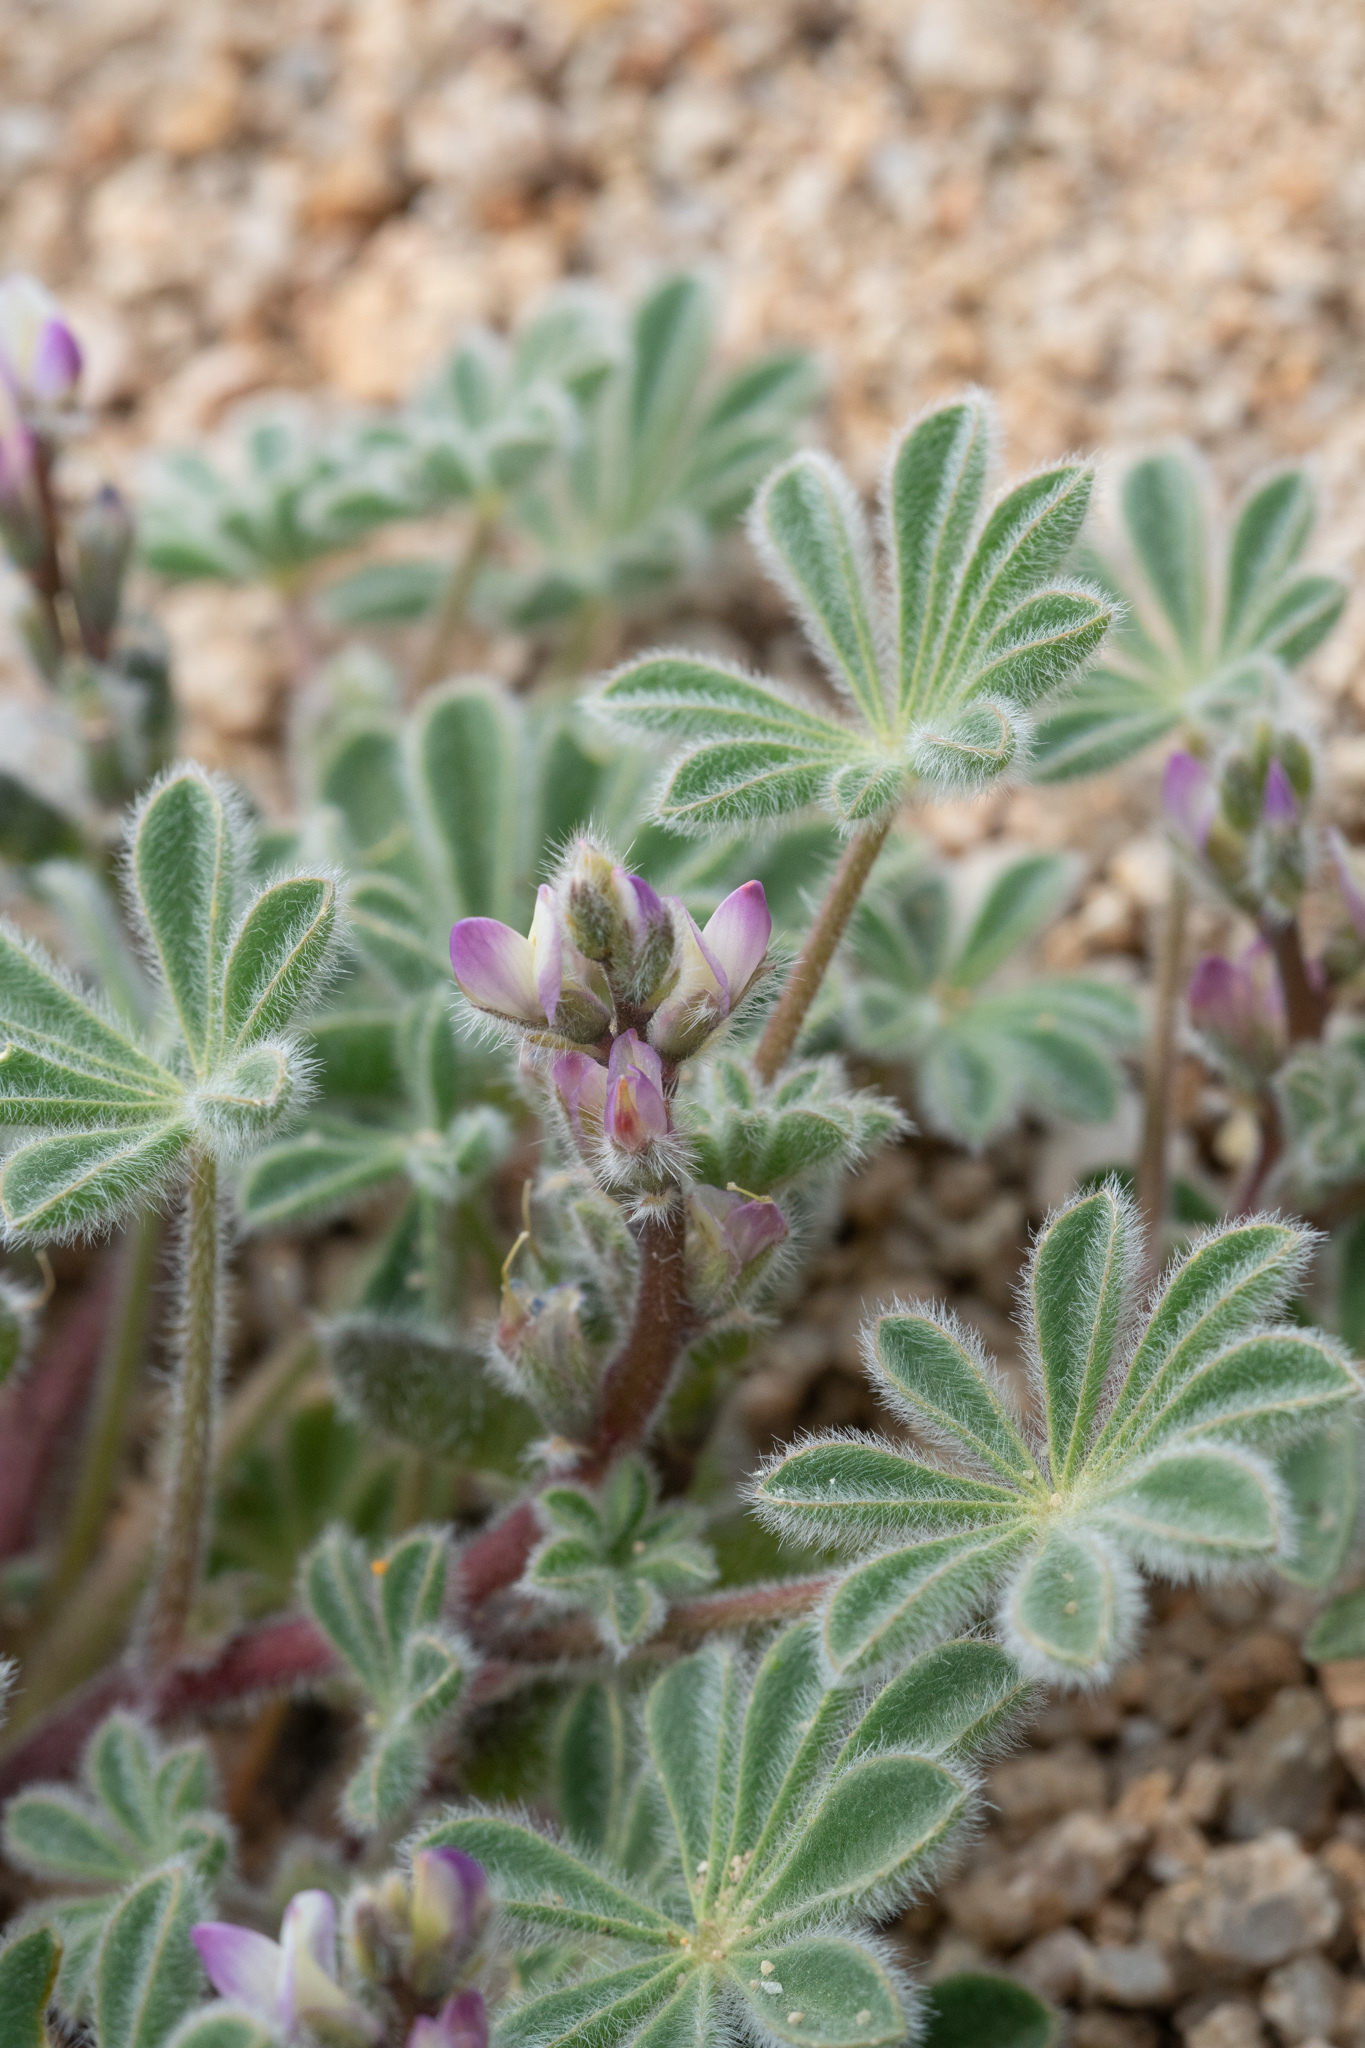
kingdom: Plantae
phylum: Tracheophyta
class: Magnoliopsida
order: Fabales
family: Fabaceae
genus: Lupinus
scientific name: Lupinus concinnus
